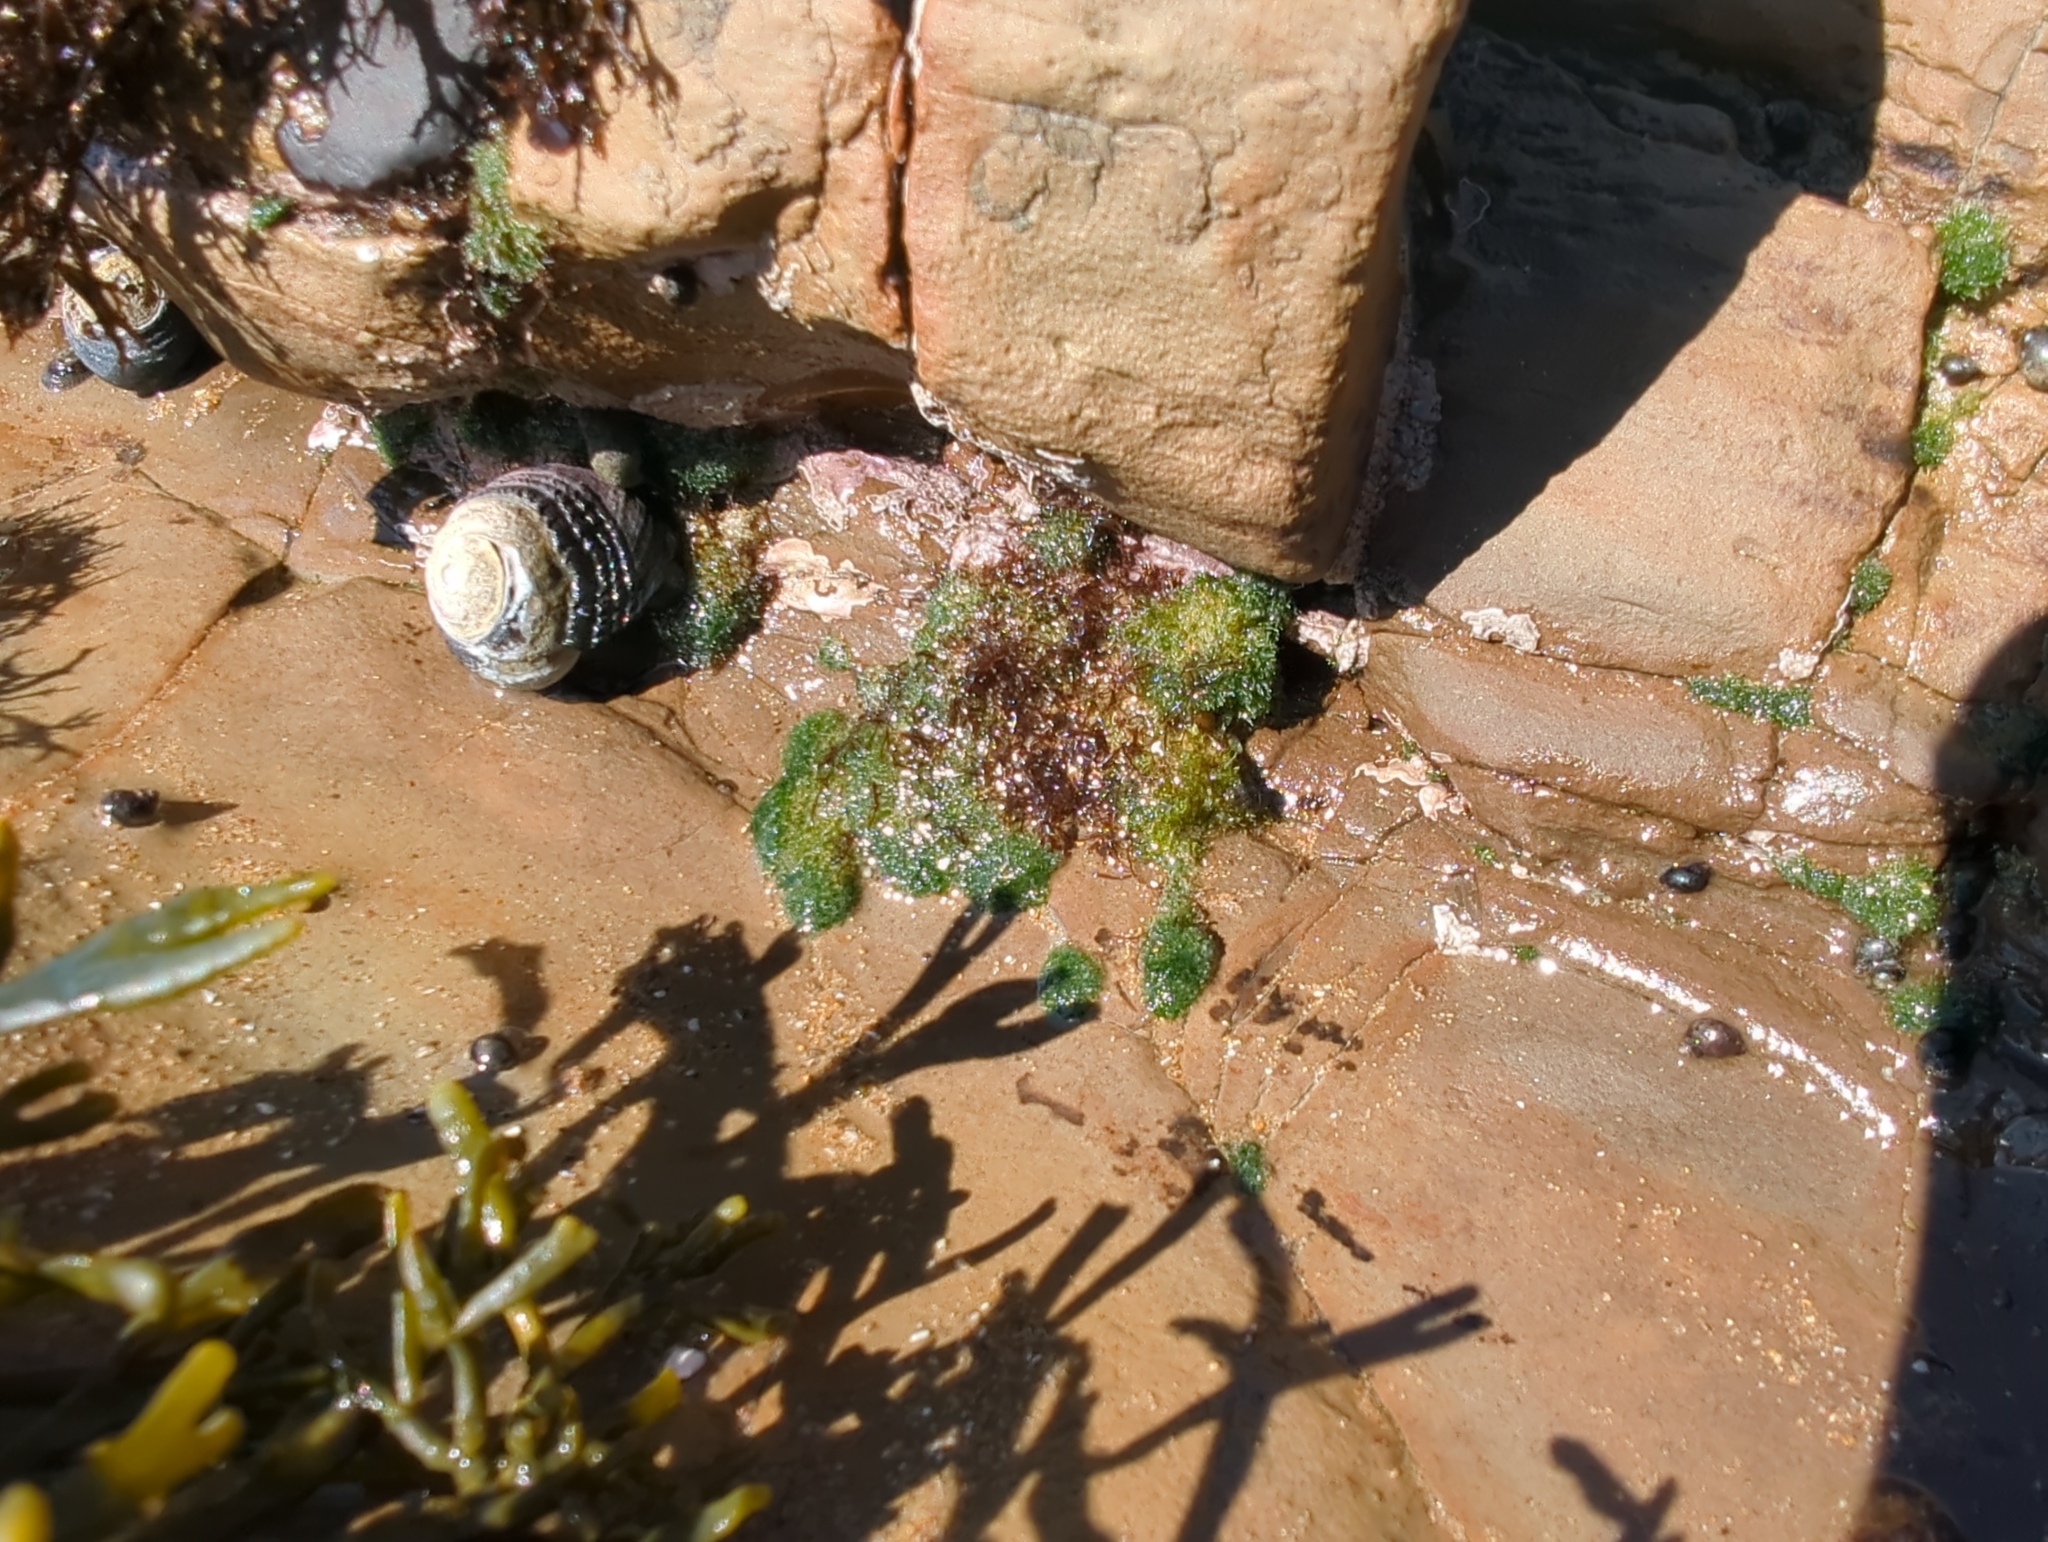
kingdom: Plantae
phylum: Chlorophyta
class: Ulvophyceae
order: Cladophorales
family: Cladophoraceae
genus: Cladophora
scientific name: Cladophora columbiana
